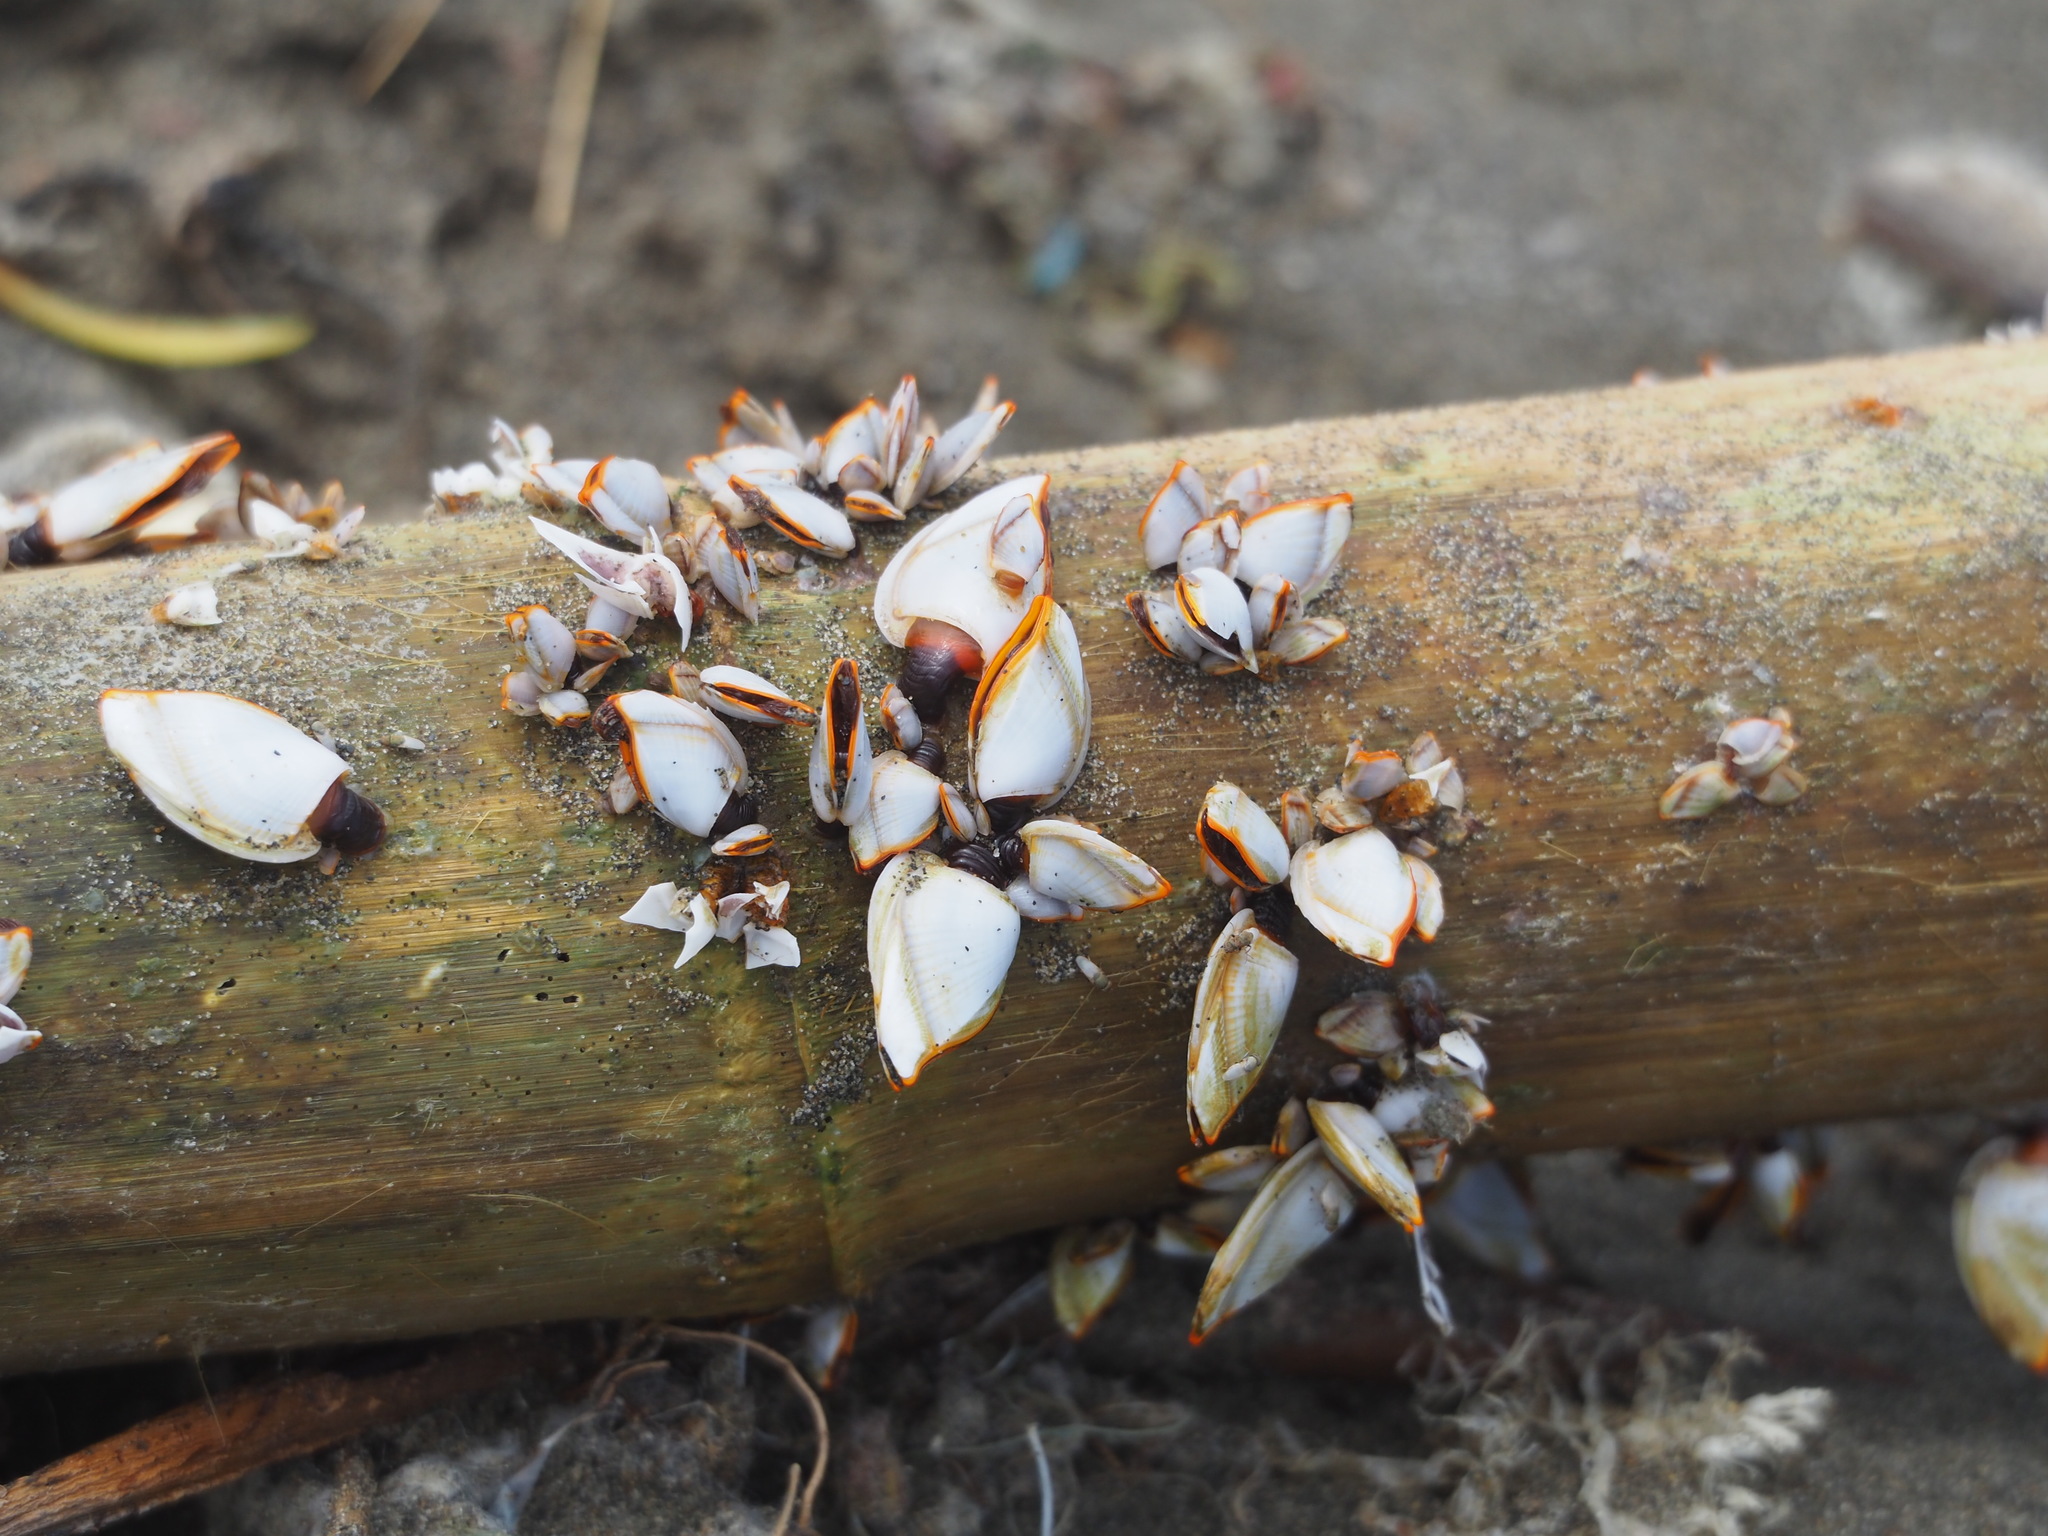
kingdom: Animalia
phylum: Arthropoda
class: Maxillopoda
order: Pedunculata
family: Lepadidae
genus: Lepas
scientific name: Lepas anserifera
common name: Goose barnacle
